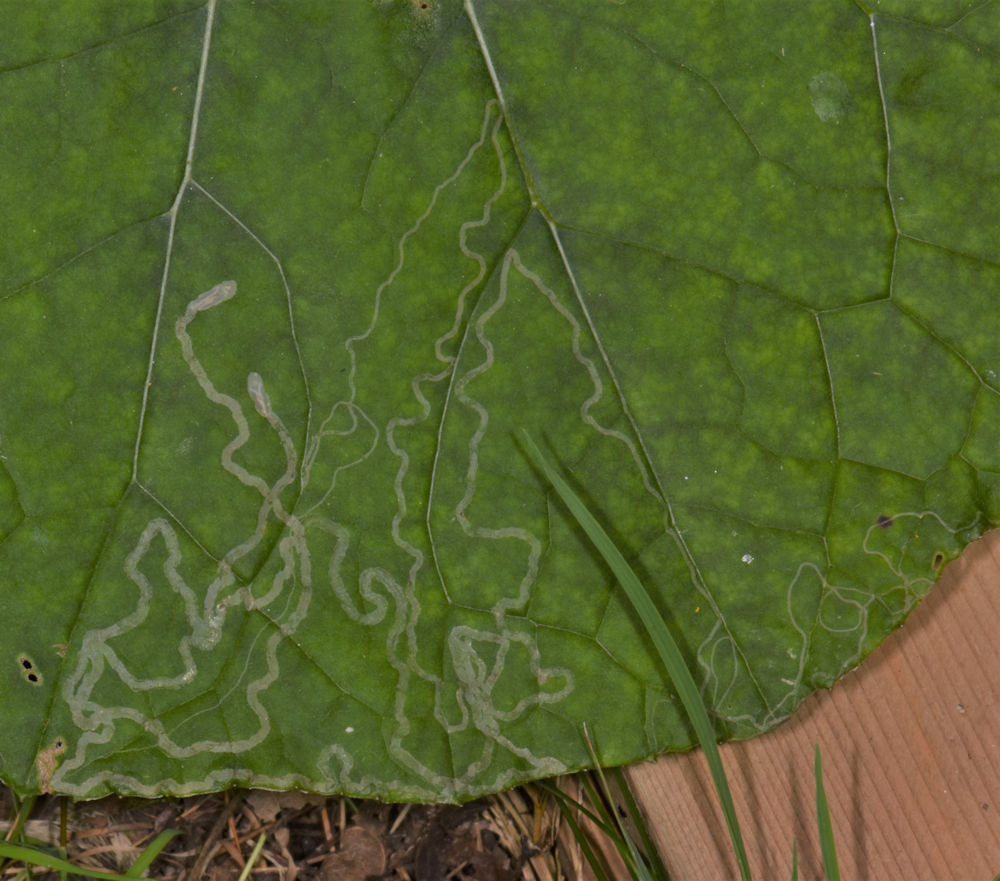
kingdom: Animalia
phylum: Arthropoda
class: Insecta
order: Lepidoptera
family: Gracillariidae
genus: Phyllocnistis
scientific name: Phyllocnistis insignis
